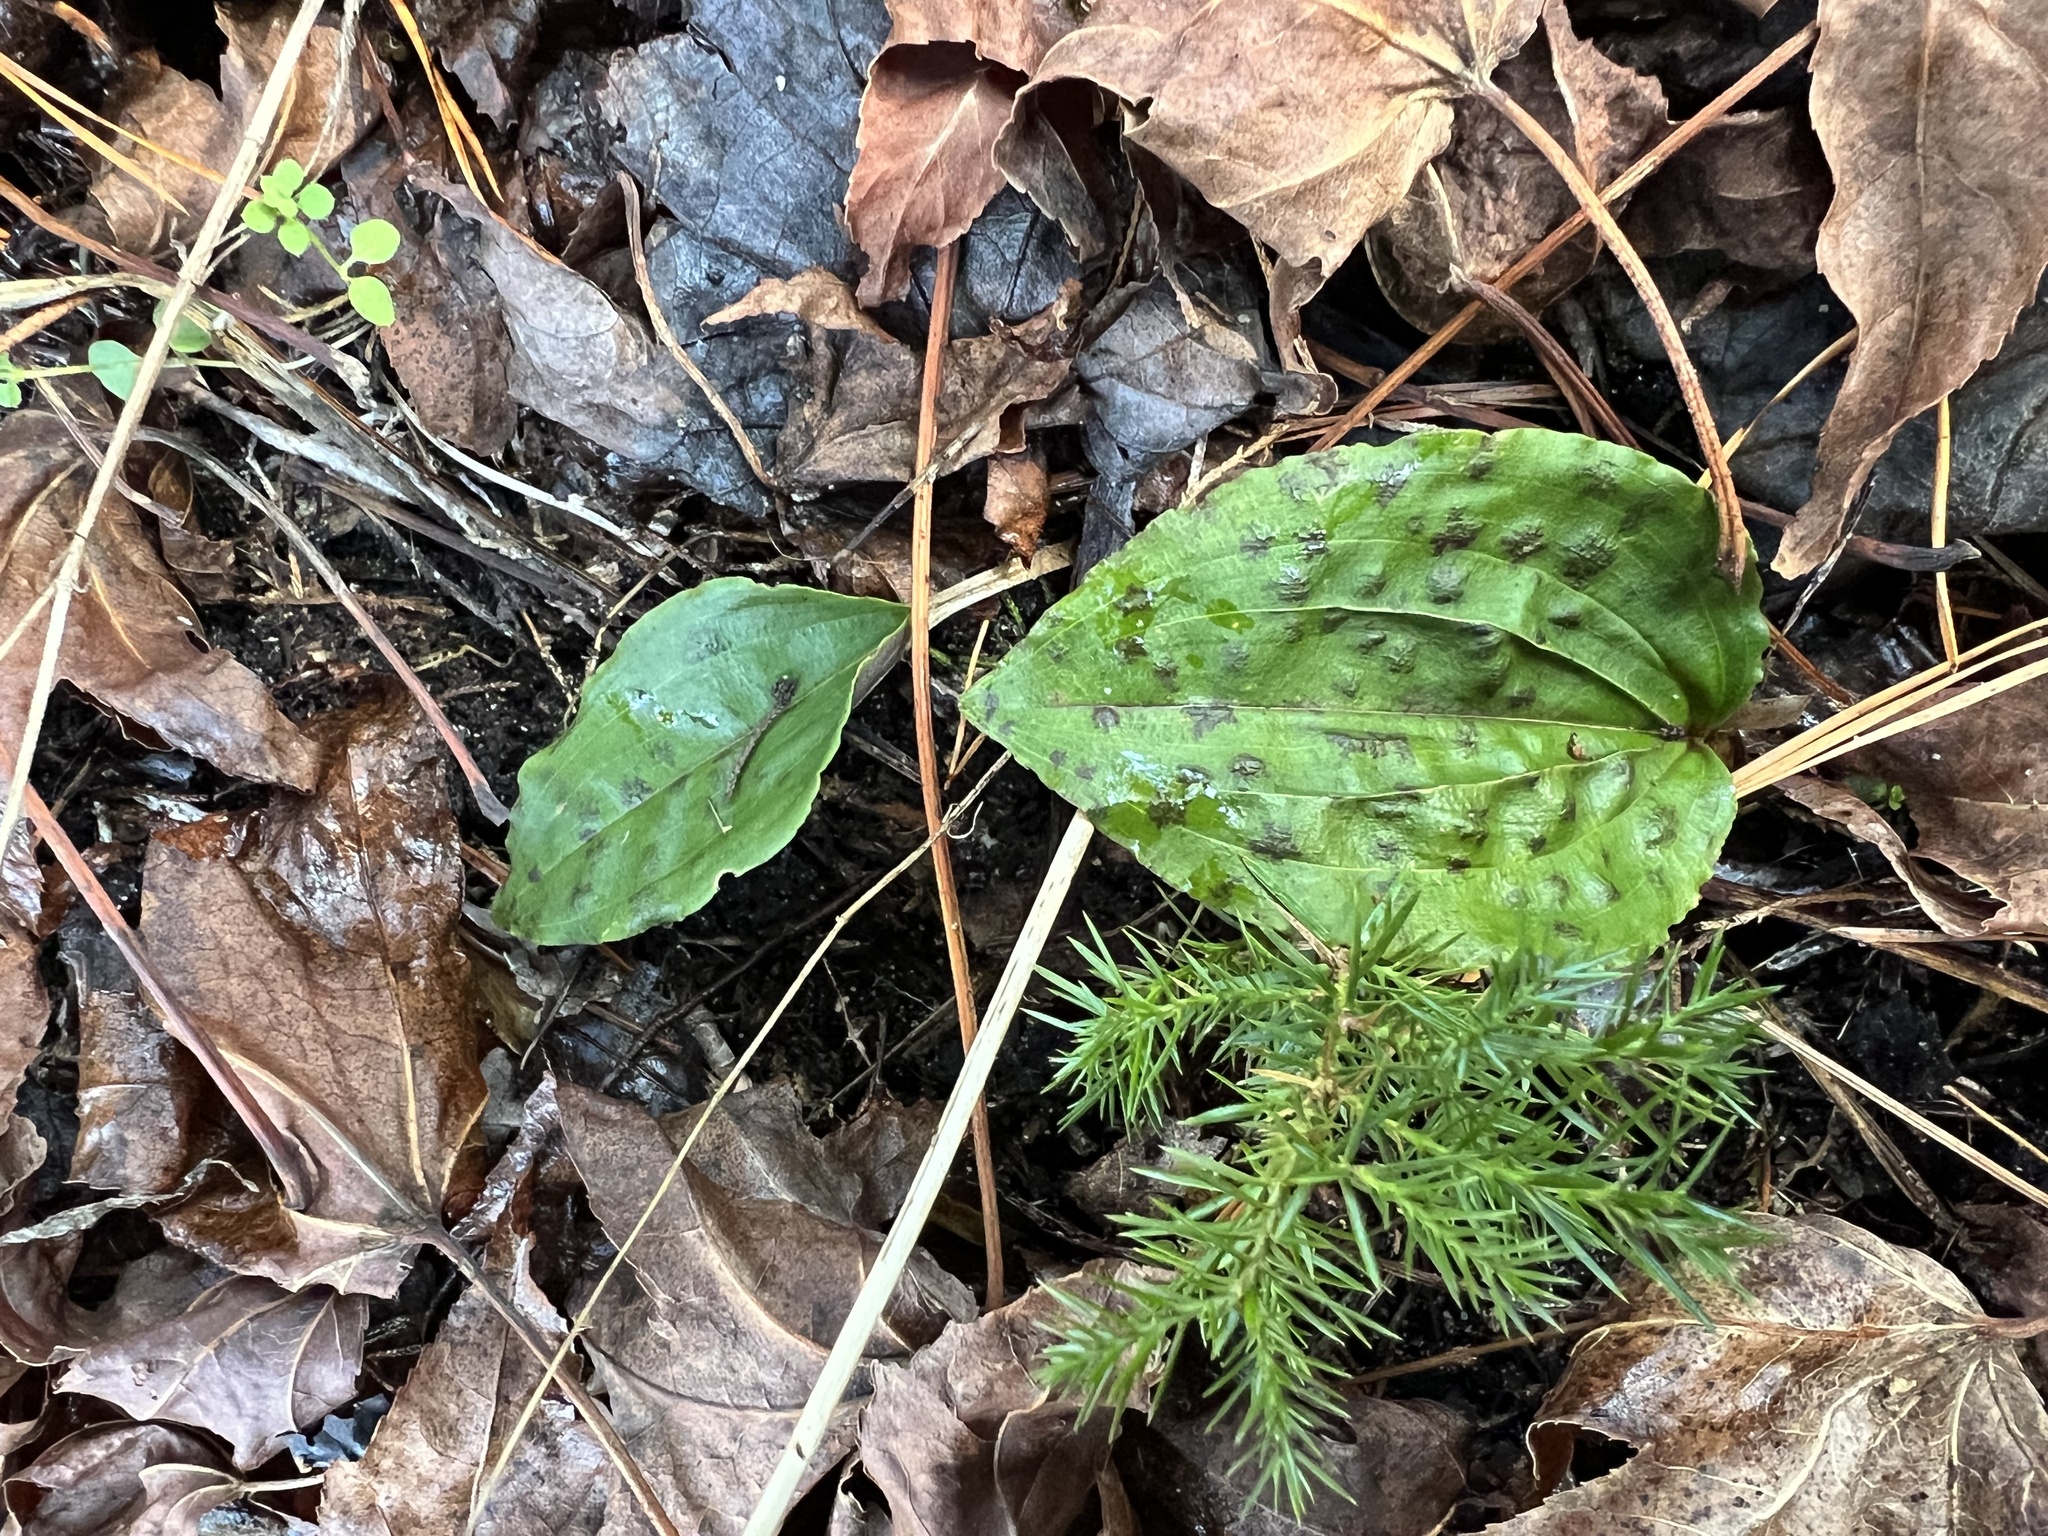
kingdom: Plantae
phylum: Tracheophyta
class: Liliopsida
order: Asparagales
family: Orchidaceae
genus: Tipularia
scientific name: Tipularia discolor
